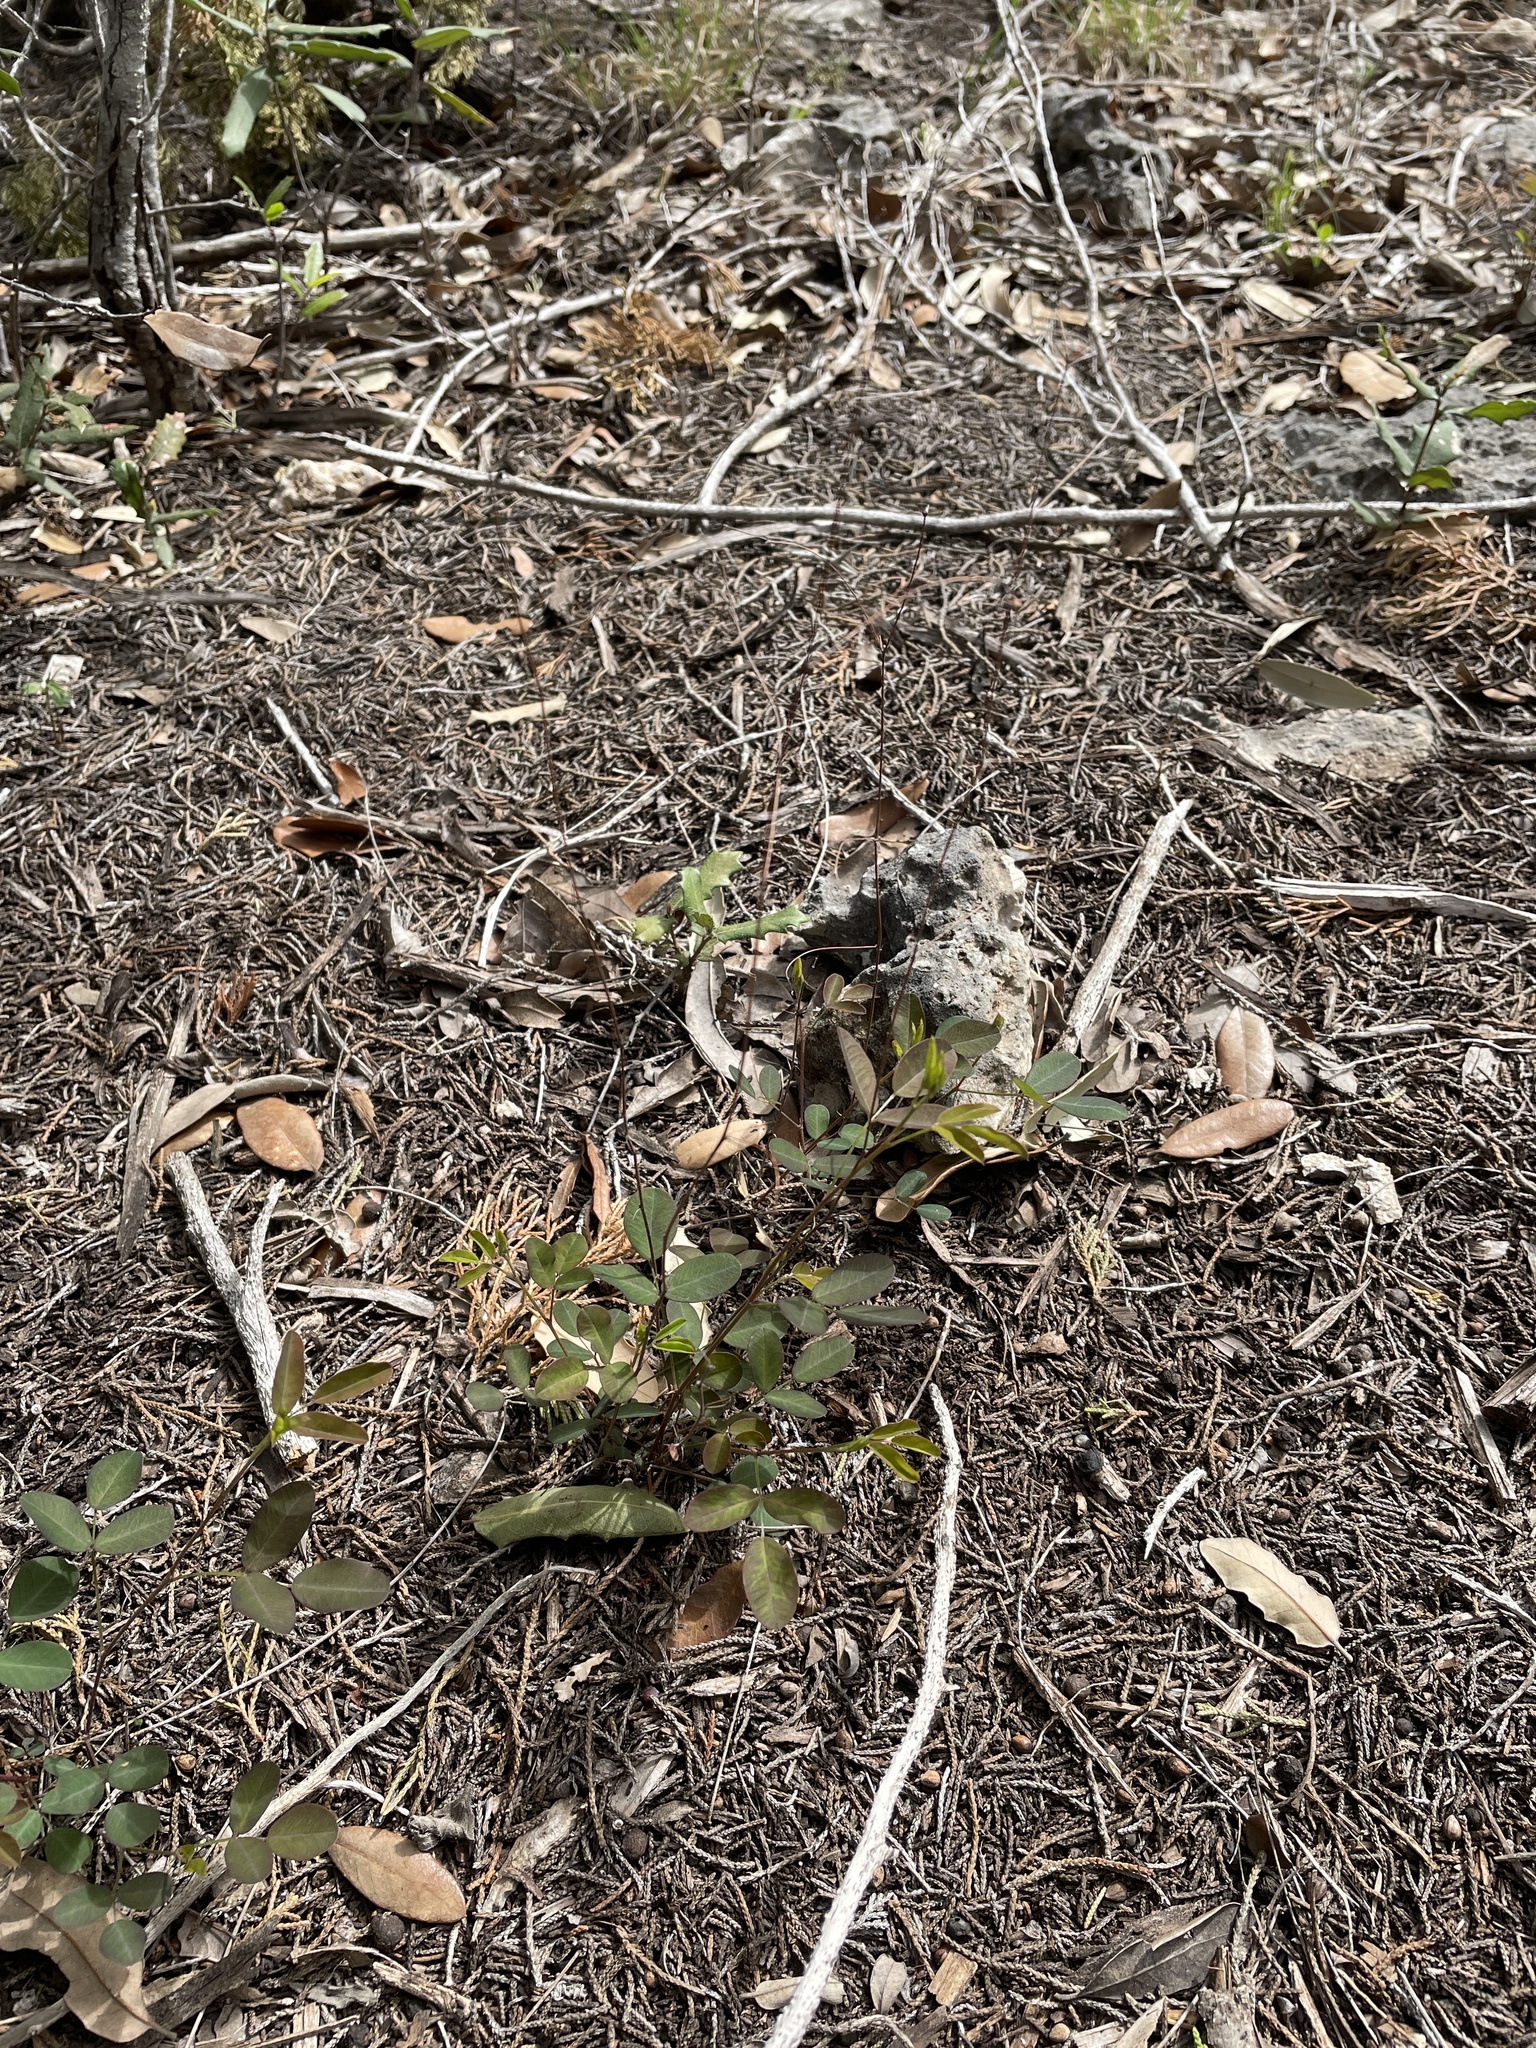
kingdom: Plantae
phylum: Tracheophyta
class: Magnoliopsida
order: Fabales
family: Fabaceae
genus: Lespedeza
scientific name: Lespedeza texana
